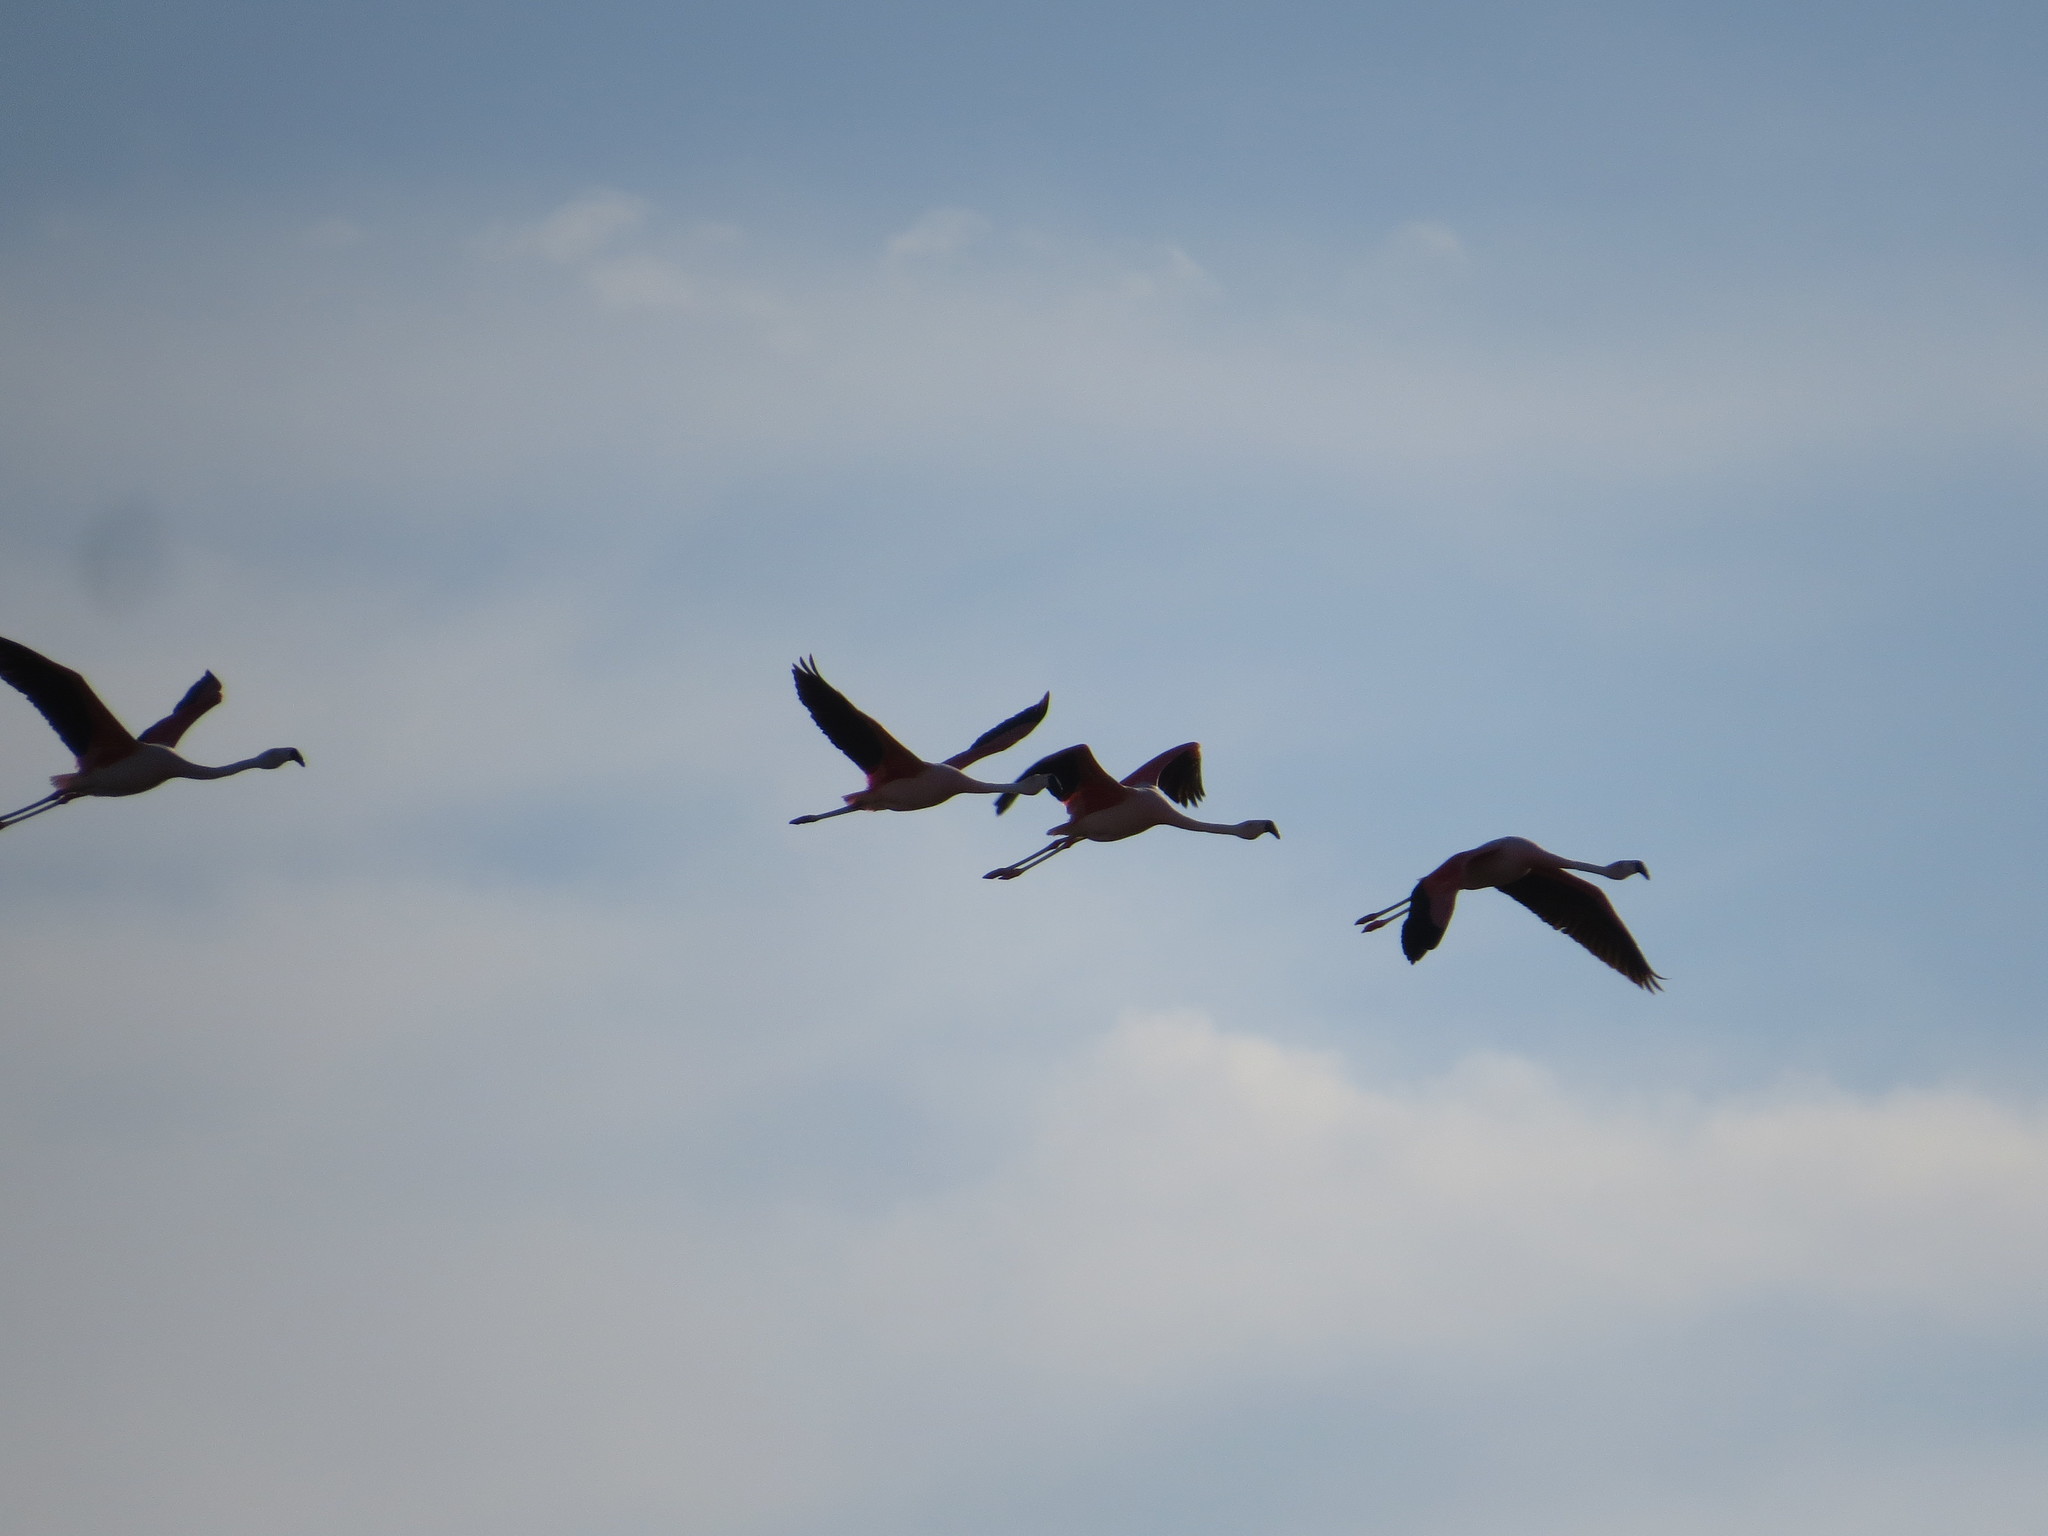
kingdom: Animalia
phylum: Chordata
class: Aves
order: Phoenicopteriformes
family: Phoenicopteridae
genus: Phoenicopterus
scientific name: Phoenicopterus chilensis
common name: Chilean flamingo
